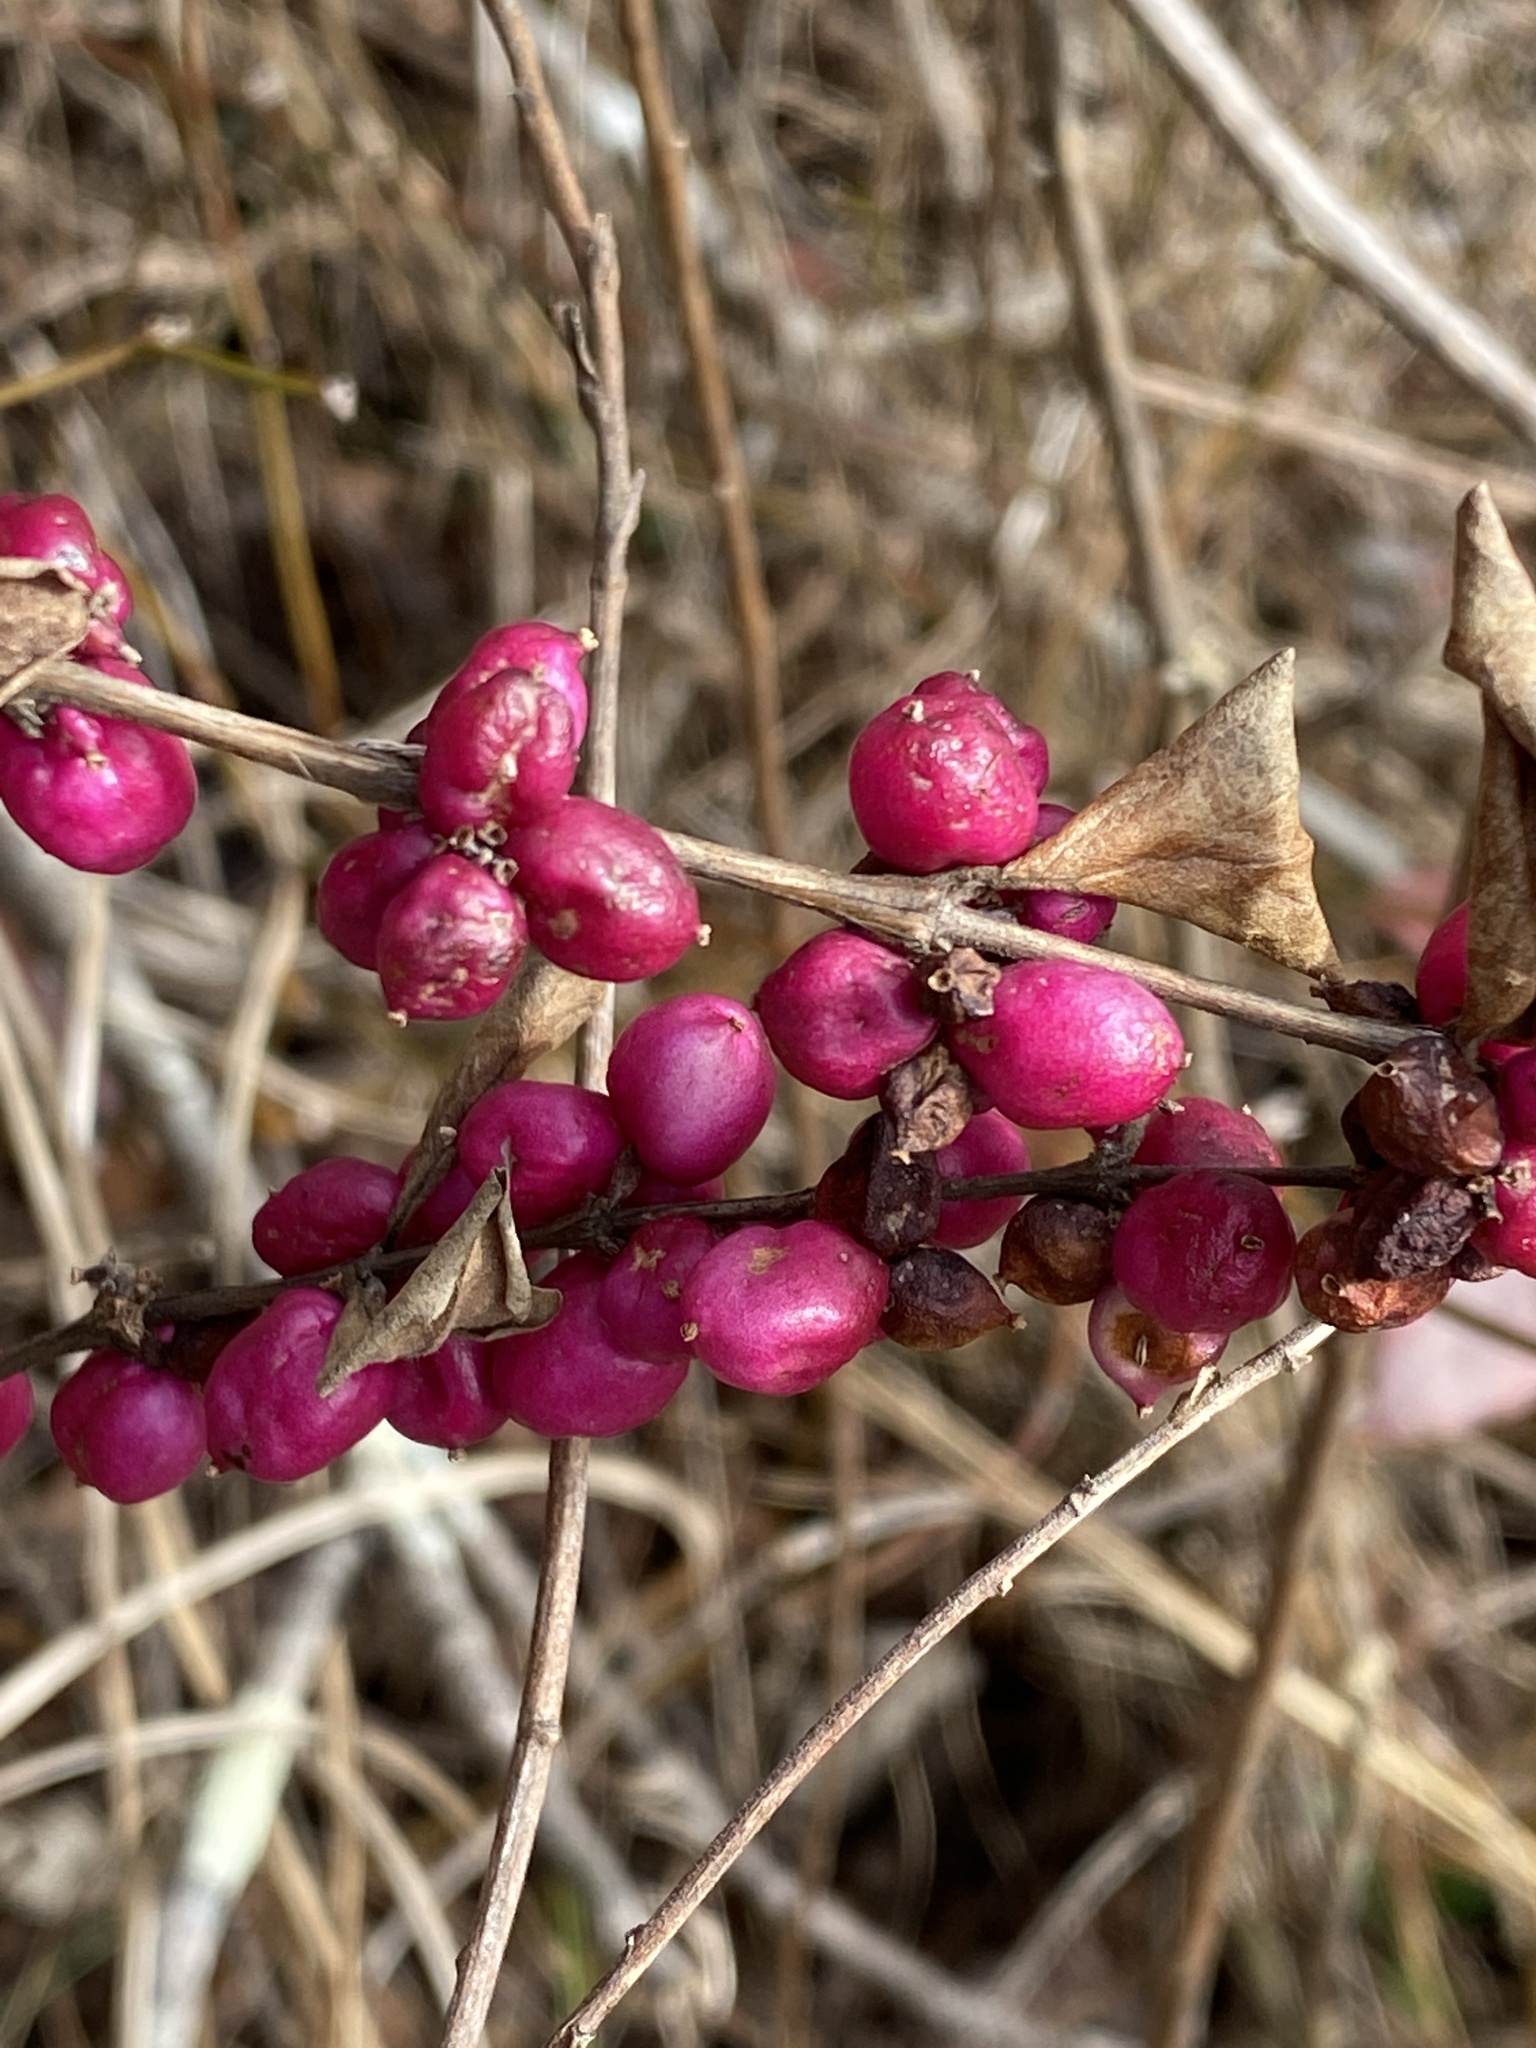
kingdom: Plantae
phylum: Tracheophyta
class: Magnoliopsida
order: Dipsacales
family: Caprifoliaceae
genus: Symphoricarpos
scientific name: Symphoricarpos orbiculatus
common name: Coralberry
